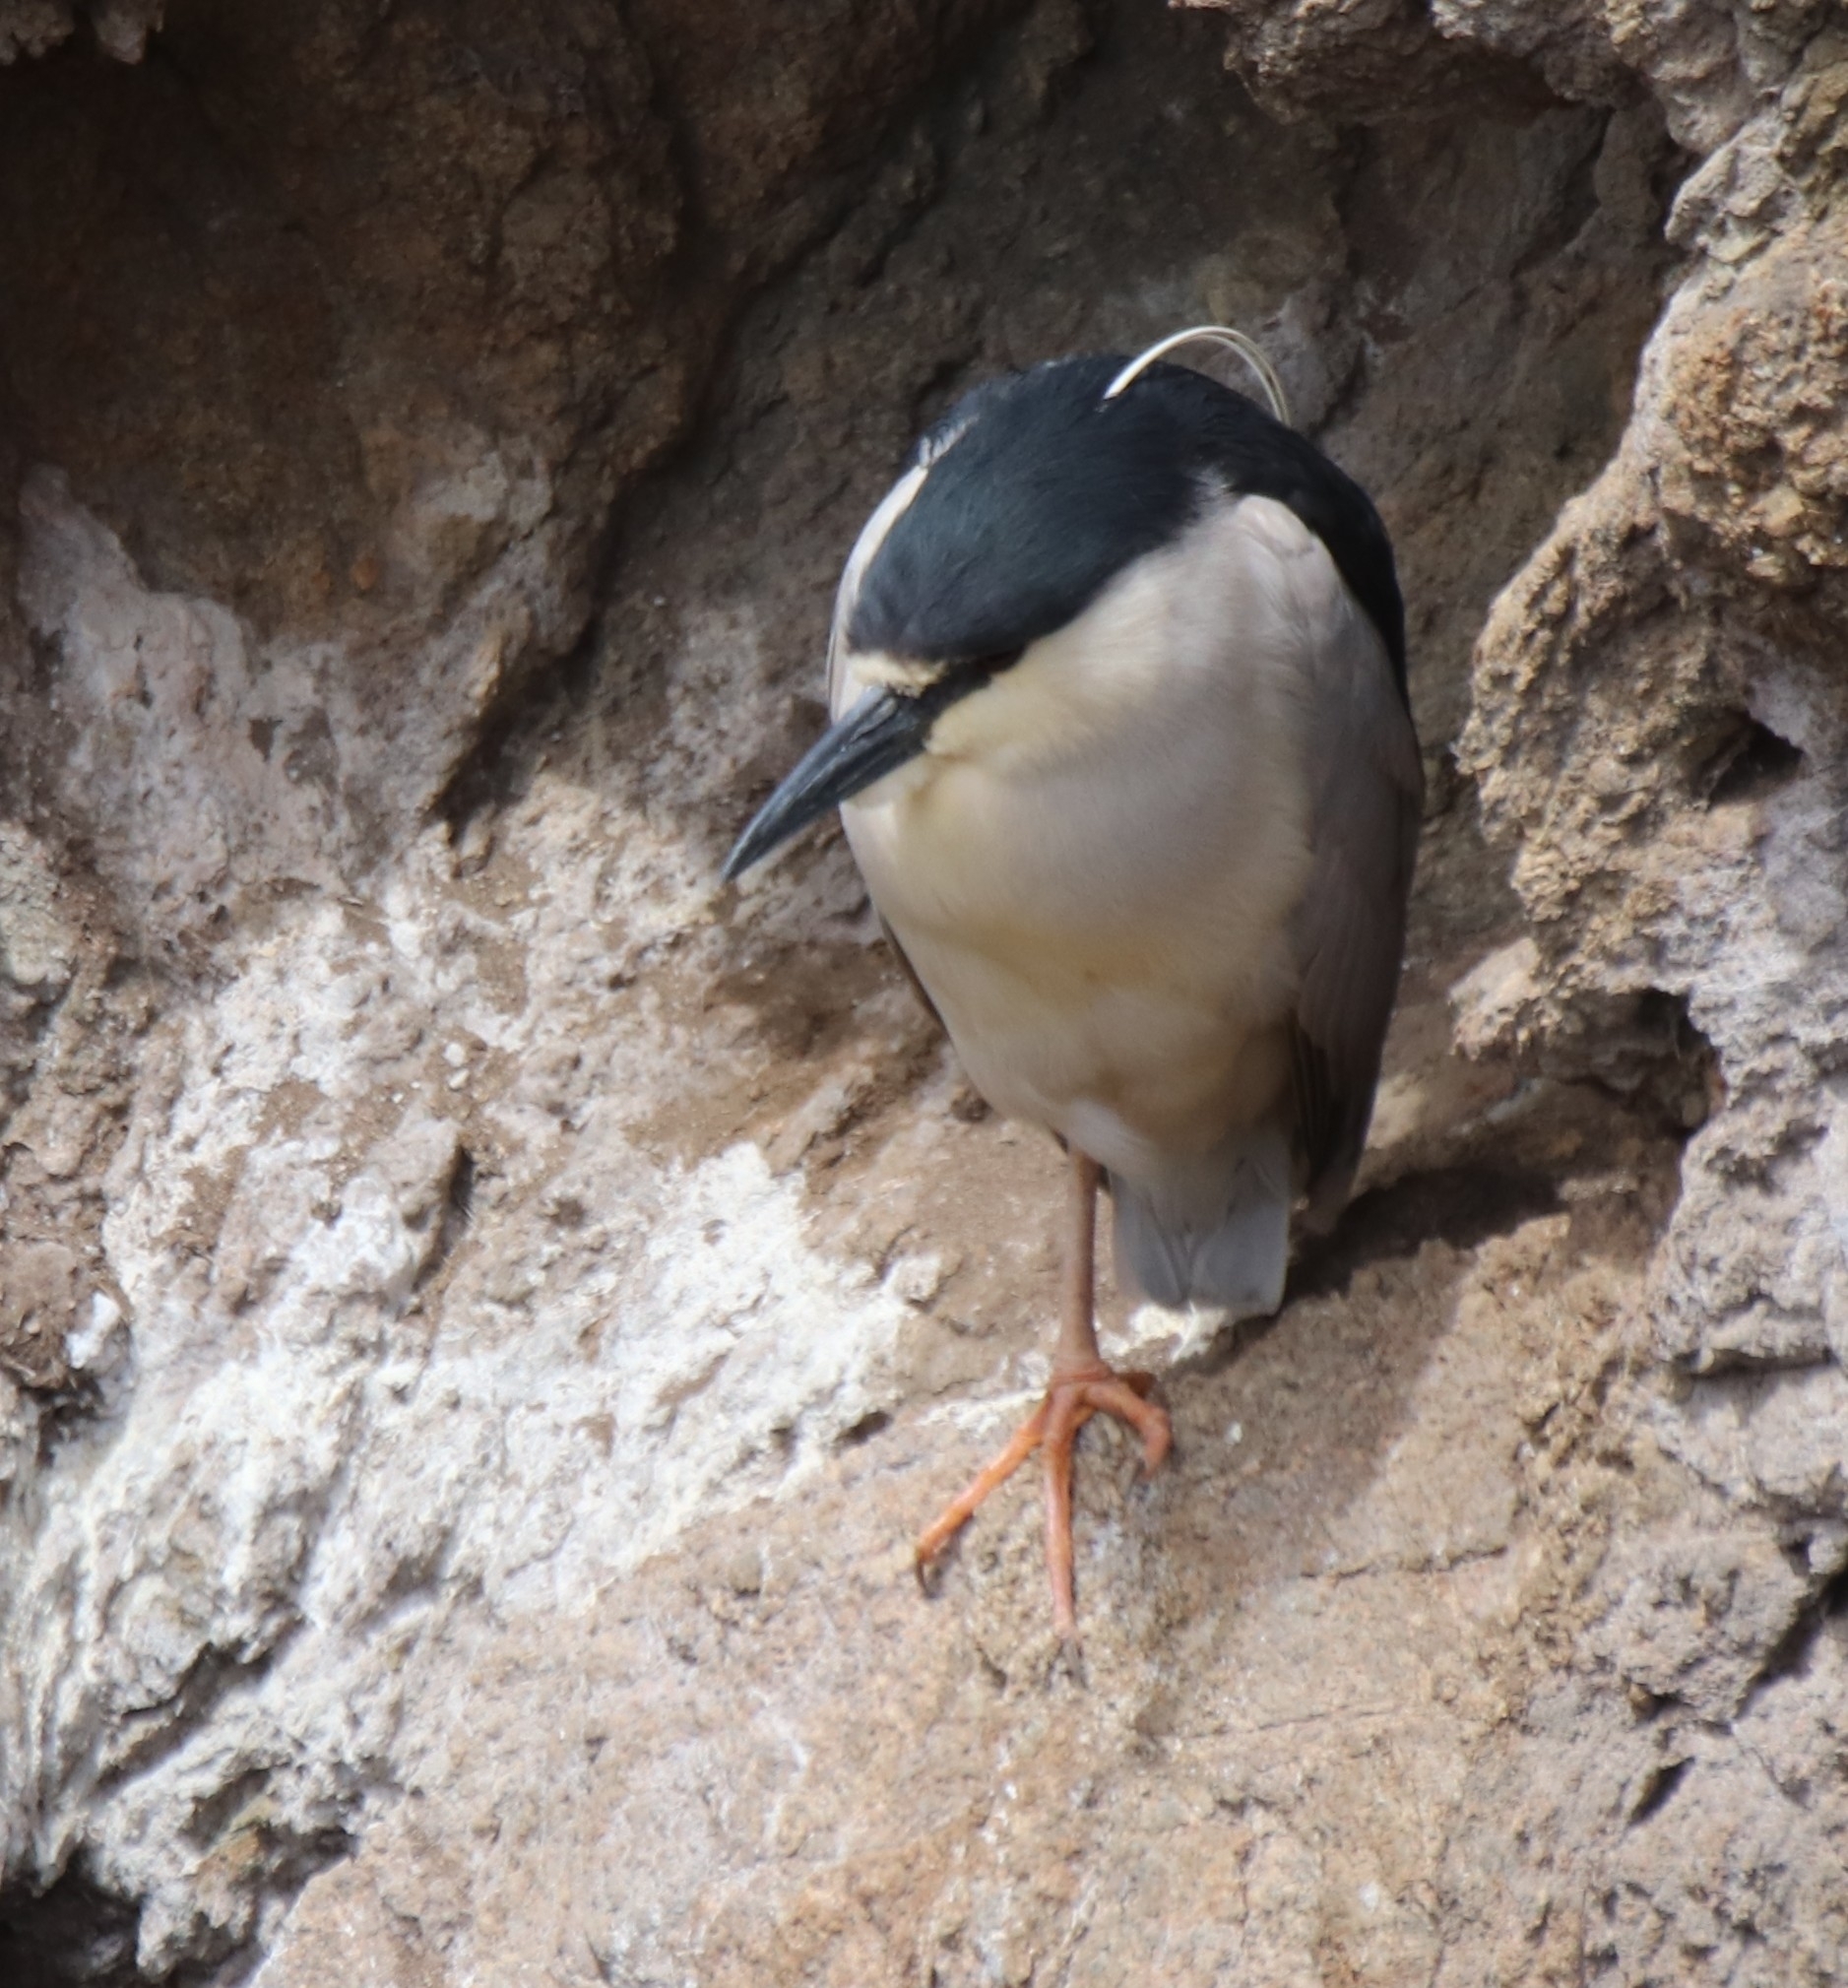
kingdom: Animalia
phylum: Chordata
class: Aves
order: Pelecaniformes
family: Ardeidae
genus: Nycticorax
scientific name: Nycticorax nycticorax
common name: Black-crowned night heron
